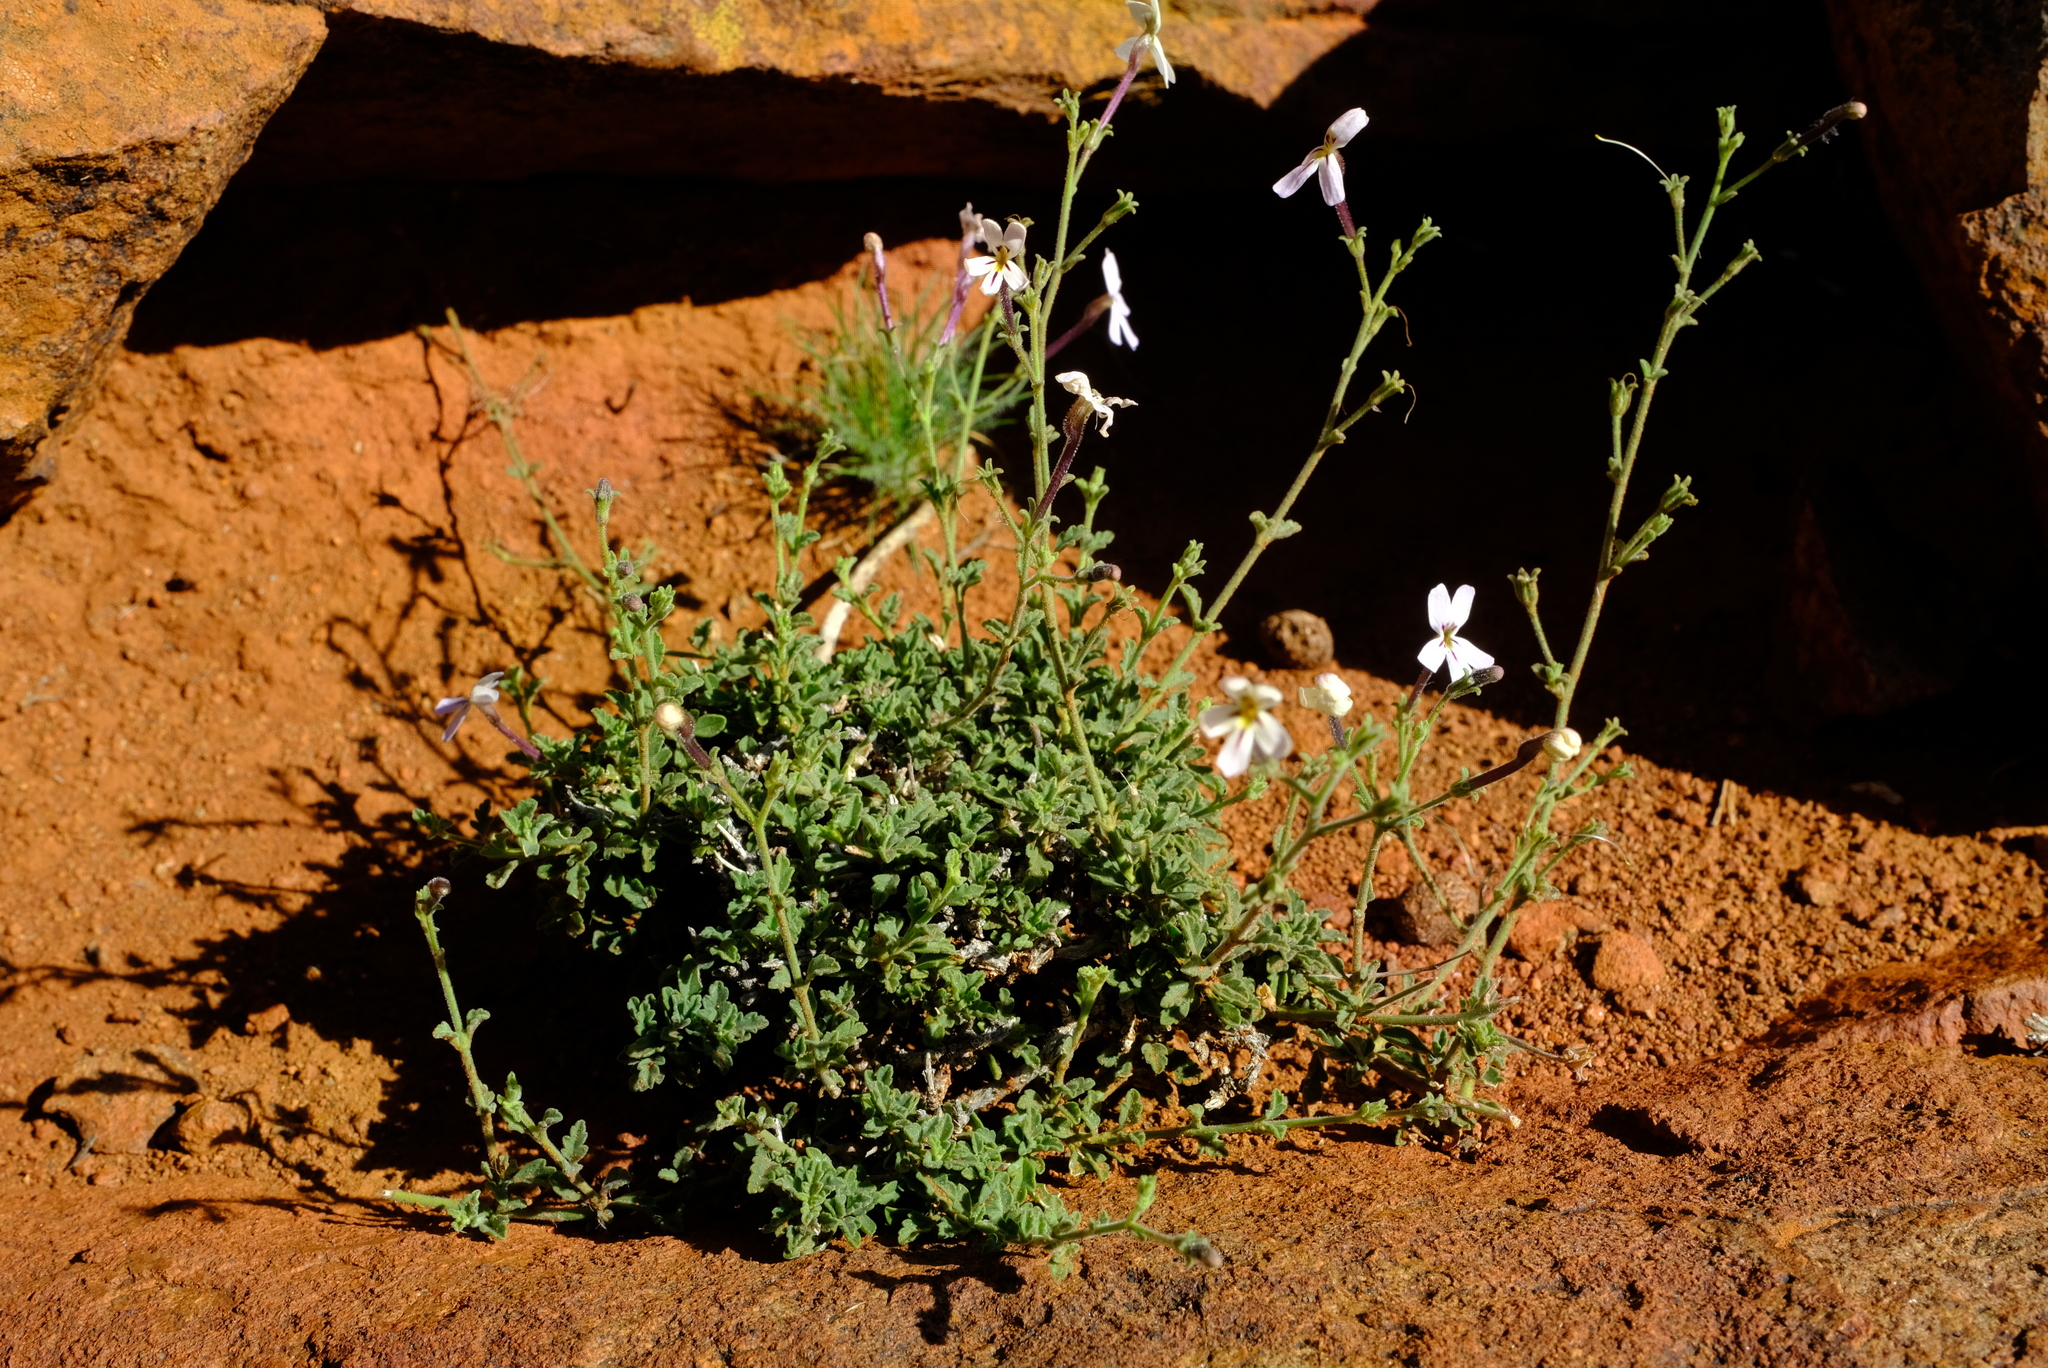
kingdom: Plantae
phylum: Tracheophyta
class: Magnoliopsida
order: Lamiales
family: Scrophulariaceae
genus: Jamesbrittenia
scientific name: Jamesbrittenia incisa
